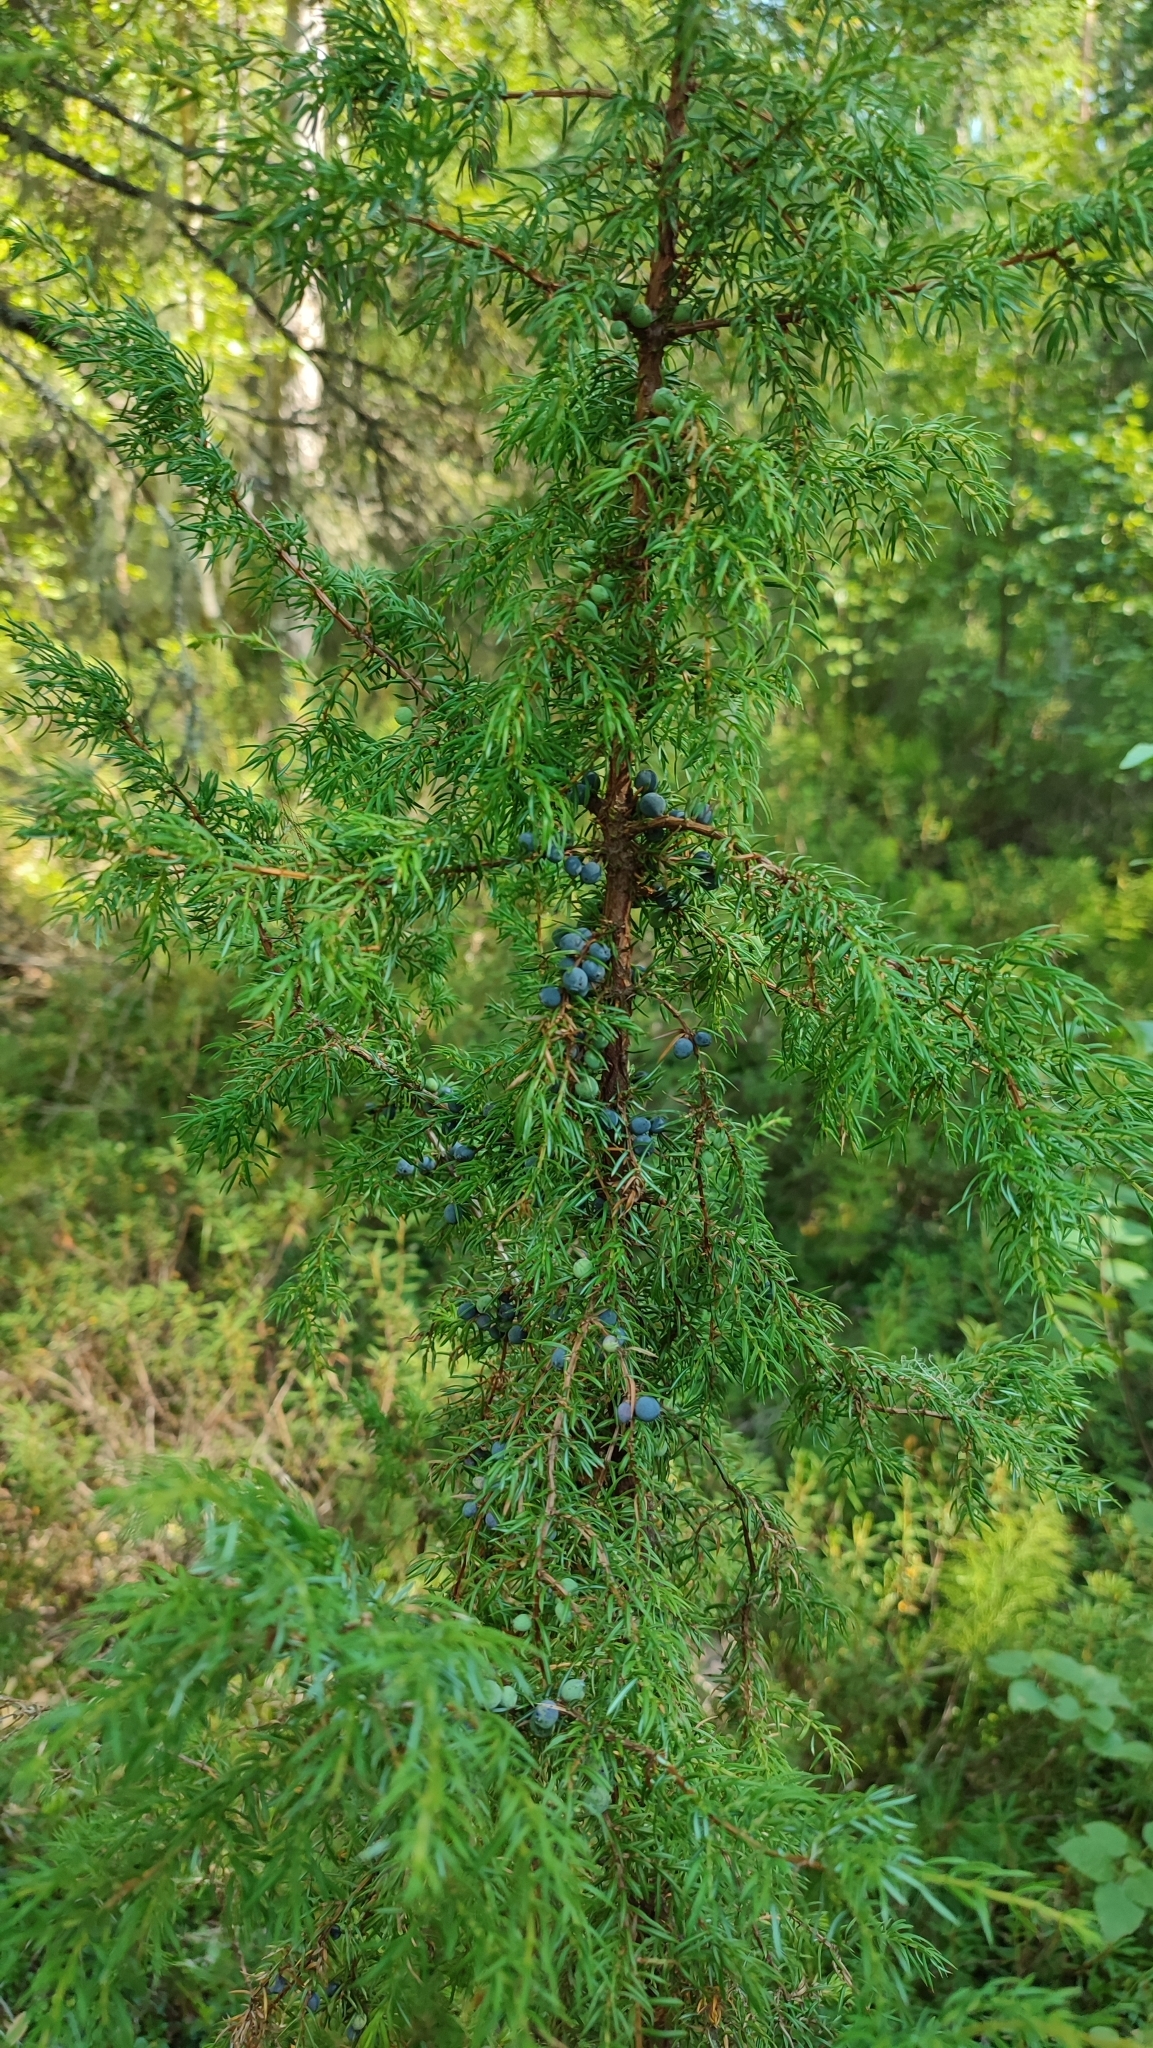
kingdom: Plantae
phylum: Tracheophyta
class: Pinopsida
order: Pinales
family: Cupressaceae
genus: Juniperus
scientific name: Juniperus communis
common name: Common juniper
